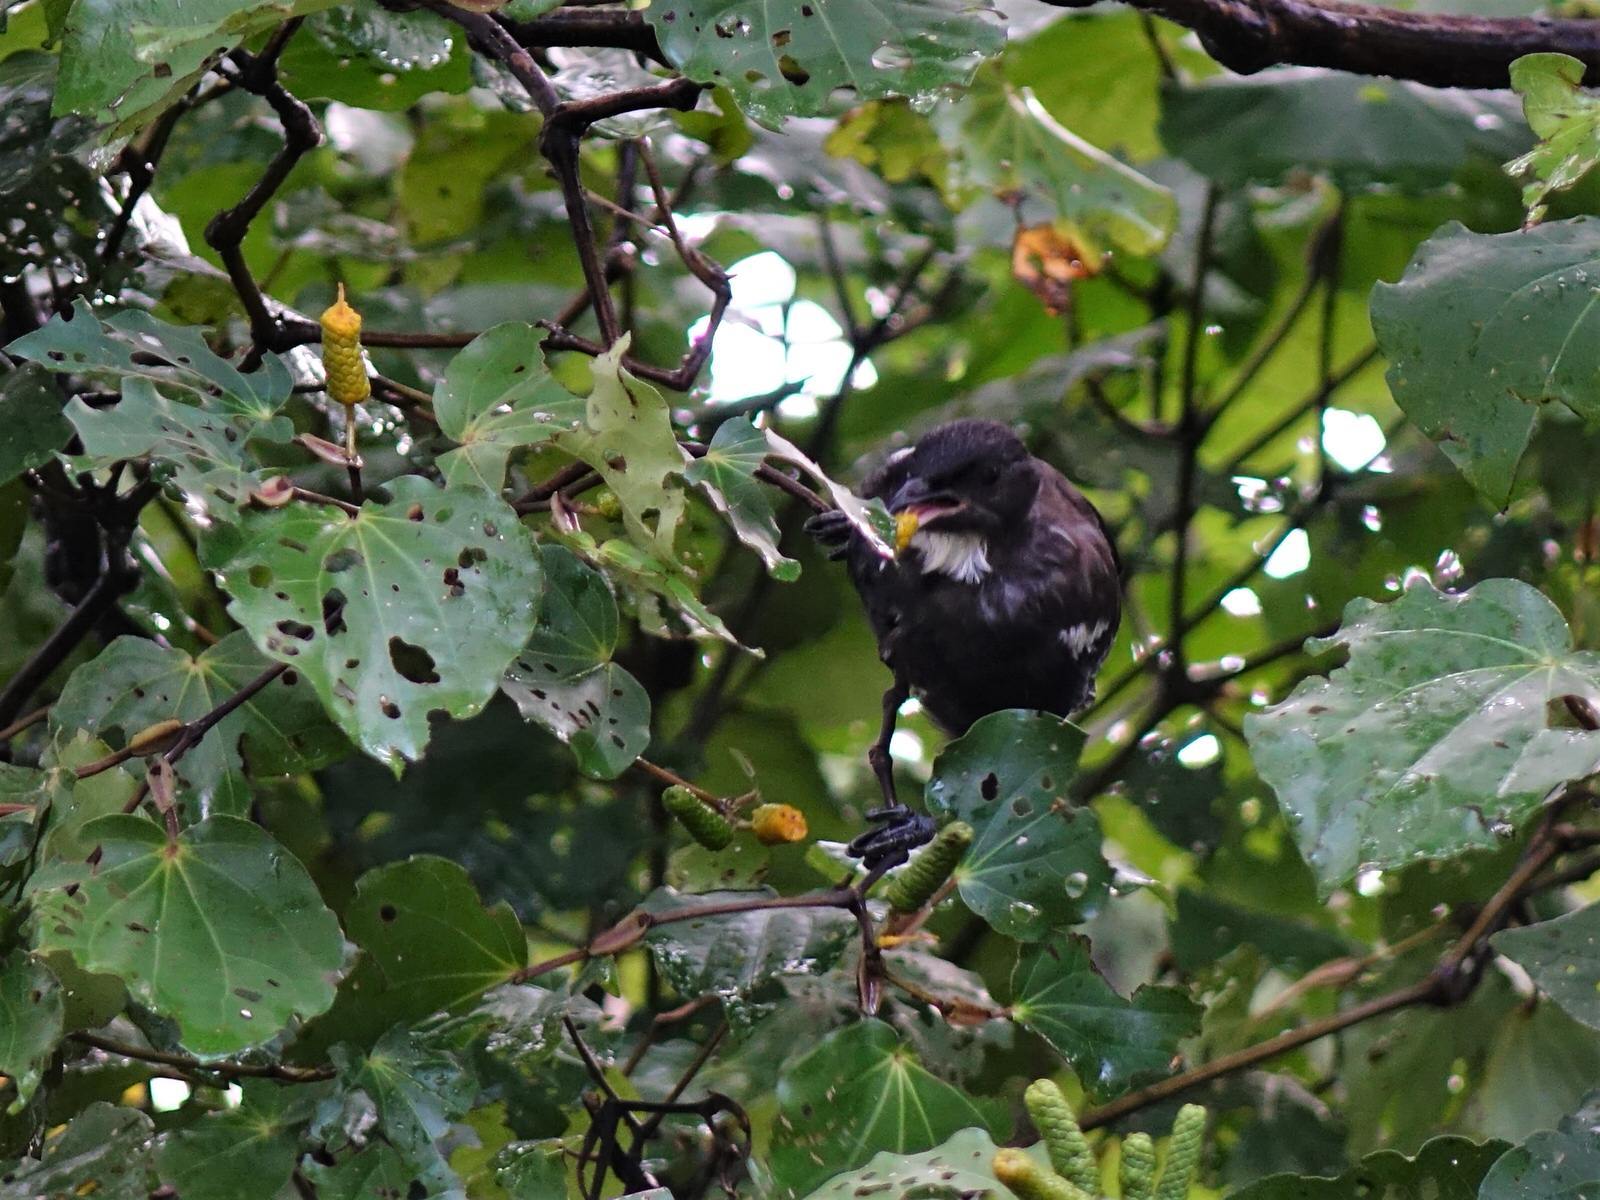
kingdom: Animalia
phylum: Chordata
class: Aves
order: Passeriformes
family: Meliphagidae
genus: Prosthemadera
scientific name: Prosthemadera novaeseelandiae
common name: Tui
